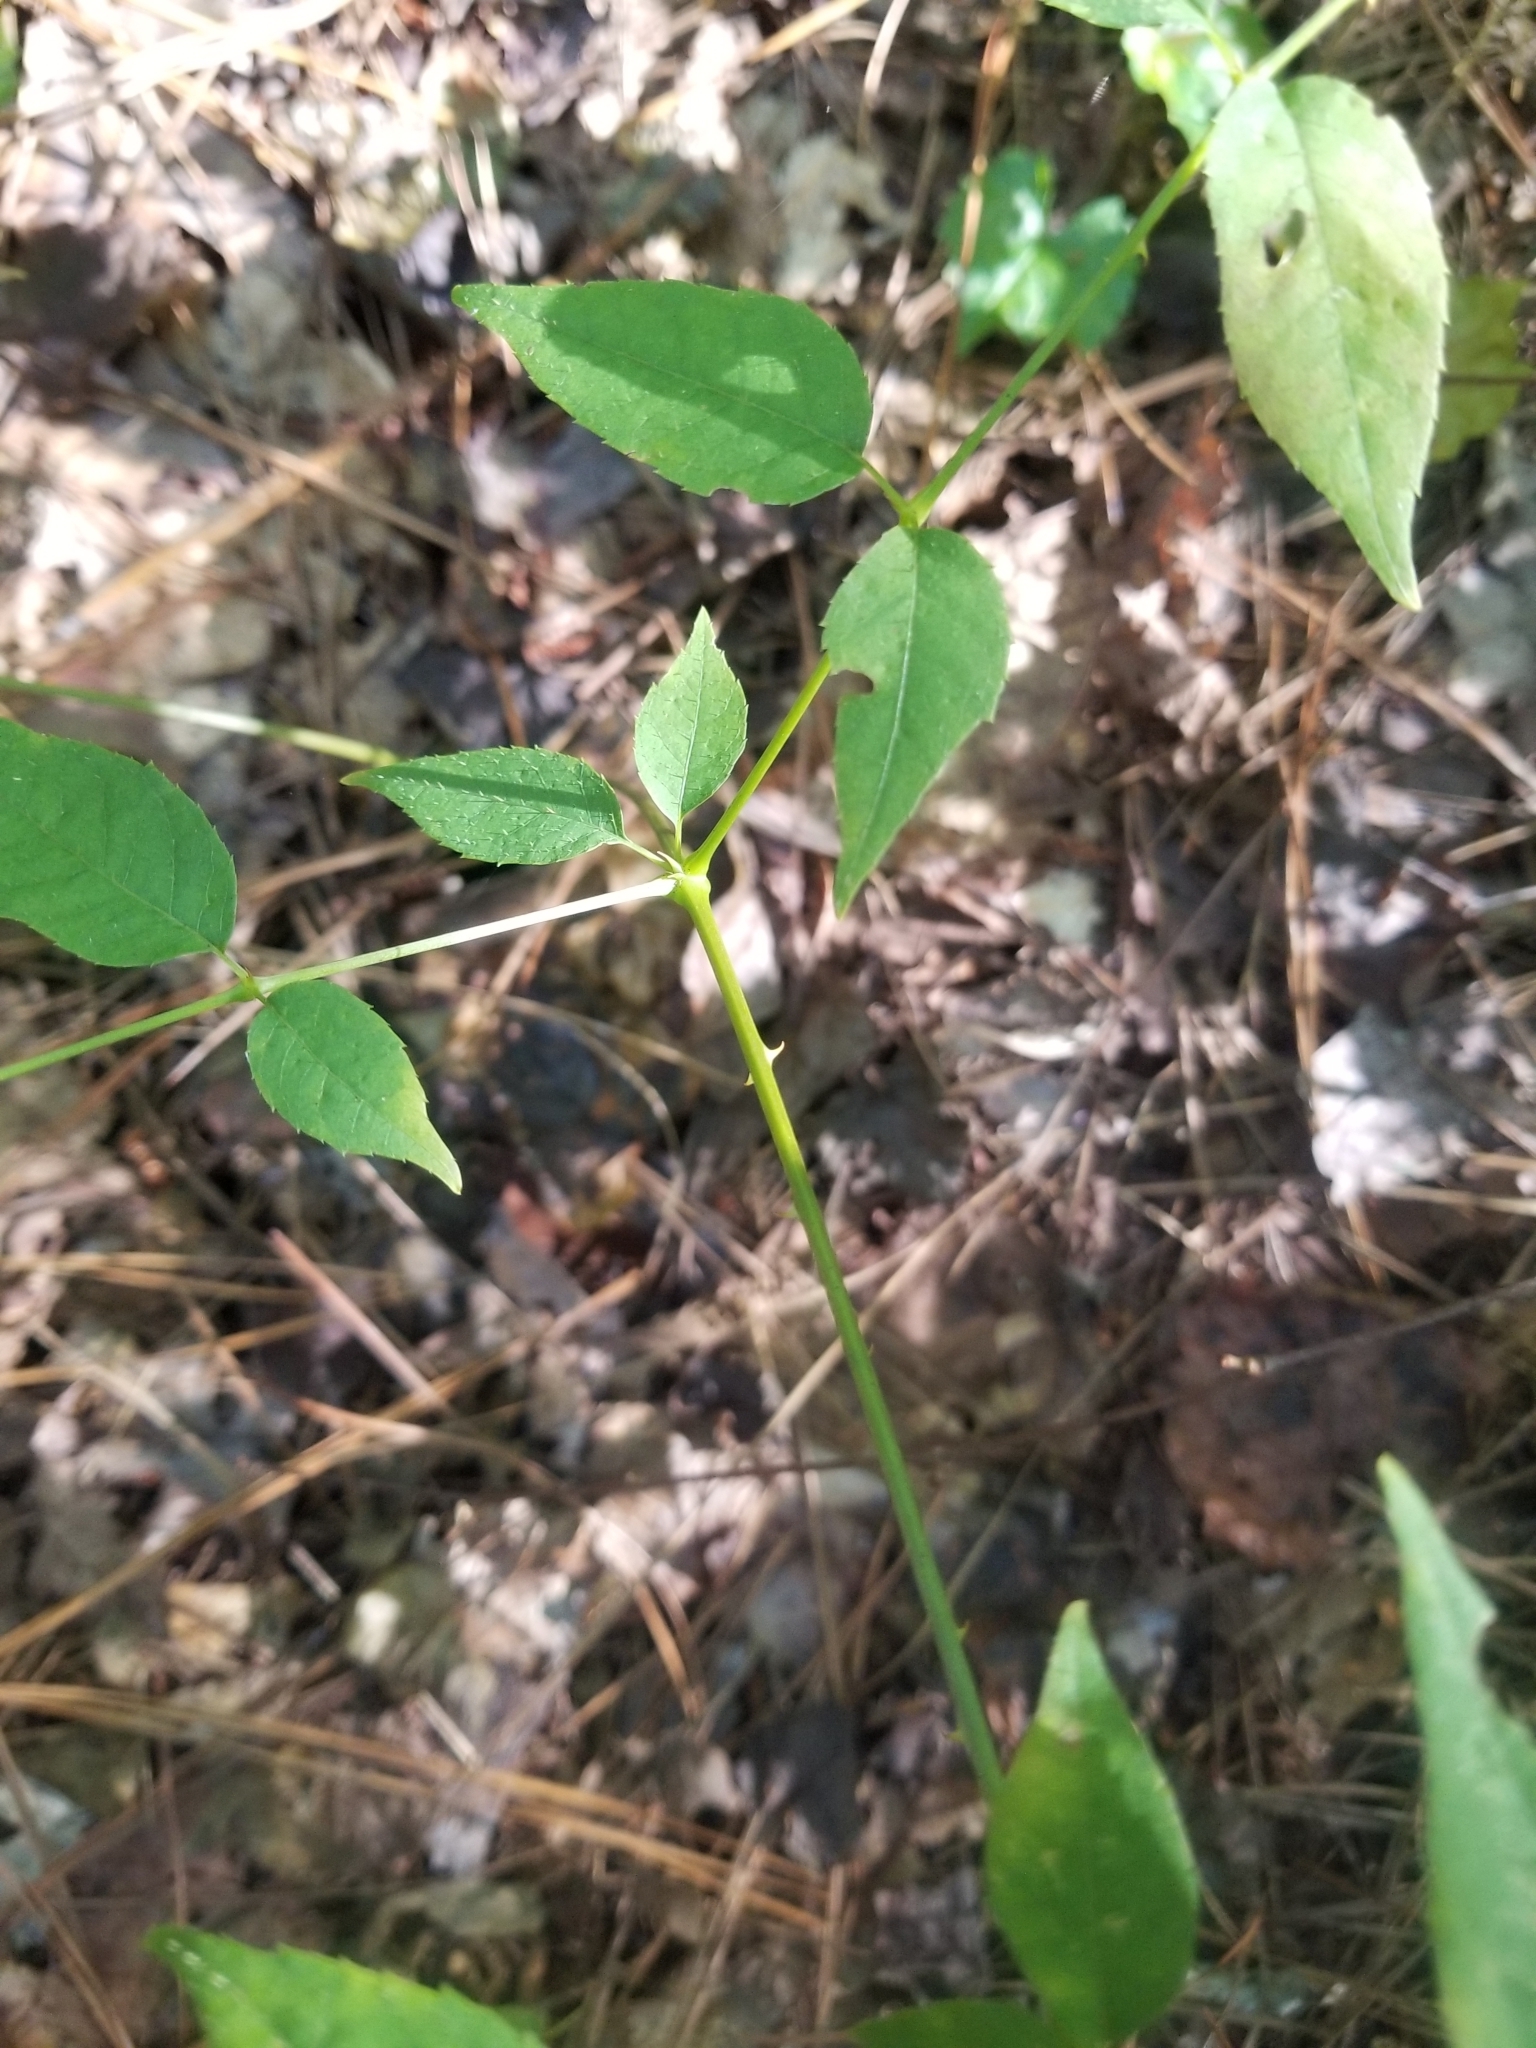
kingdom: Plantae
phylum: Tracheophyta
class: Magnoliopsida
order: Apiales
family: Araliaceae
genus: Aralia
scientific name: Aralia spinosa
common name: Hercules'-club
